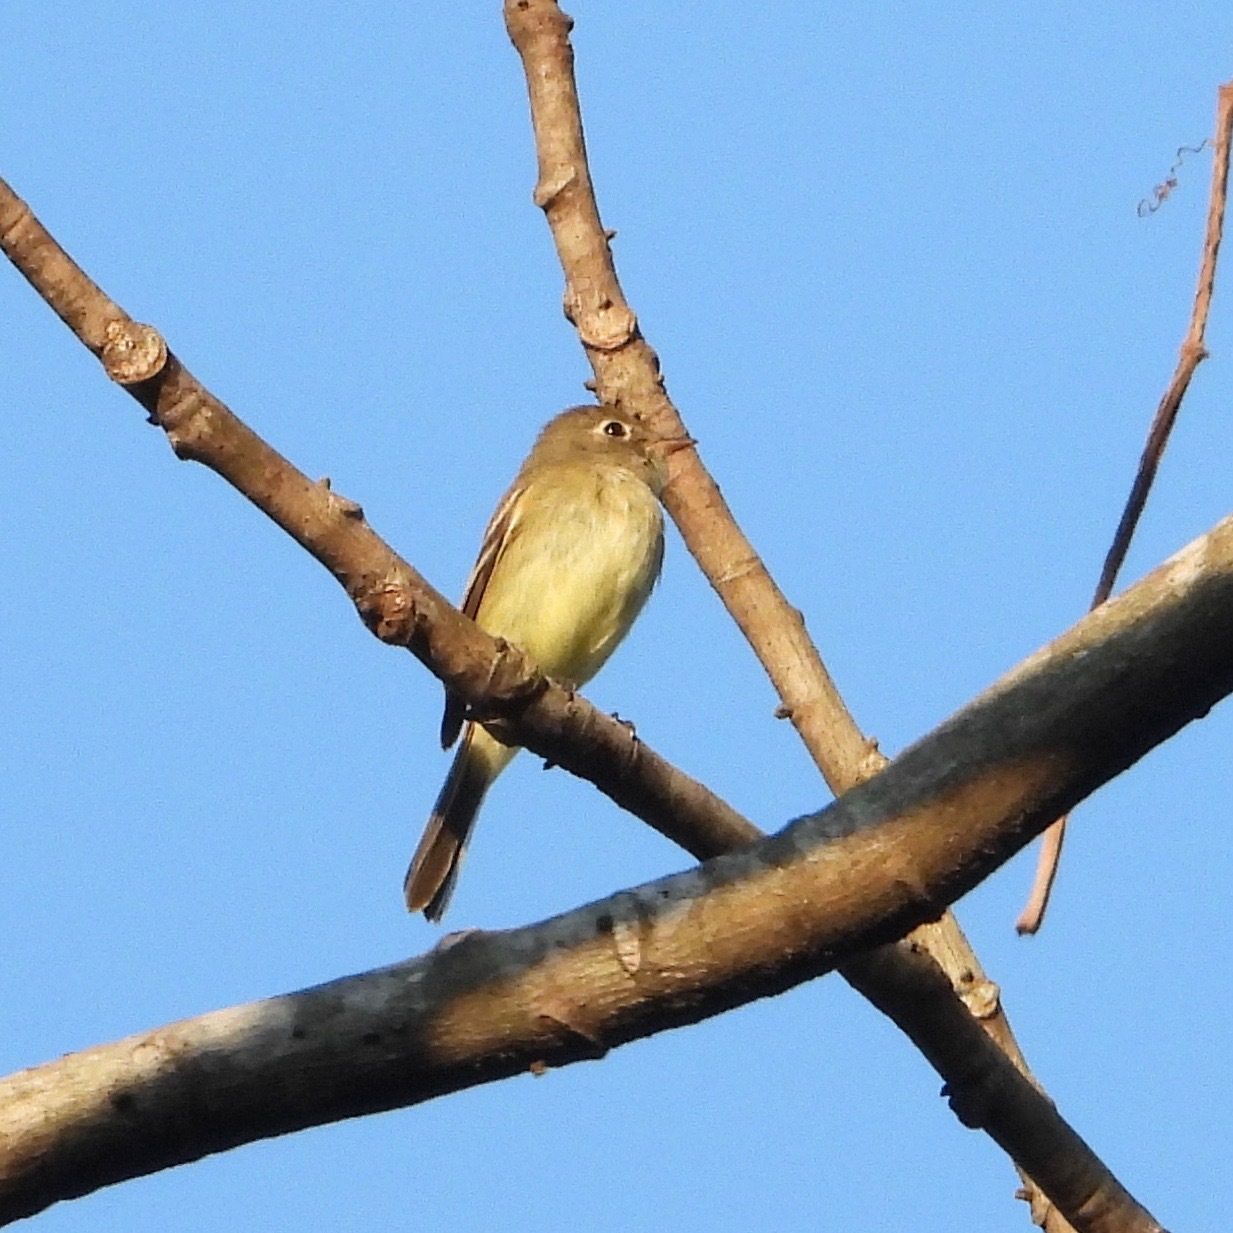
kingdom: Animalia
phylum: Chordata
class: Aves
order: Passeriformes
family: Tyrannidae
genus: Empidonax
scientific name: Empidonax minimus
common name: Least flycatcher
